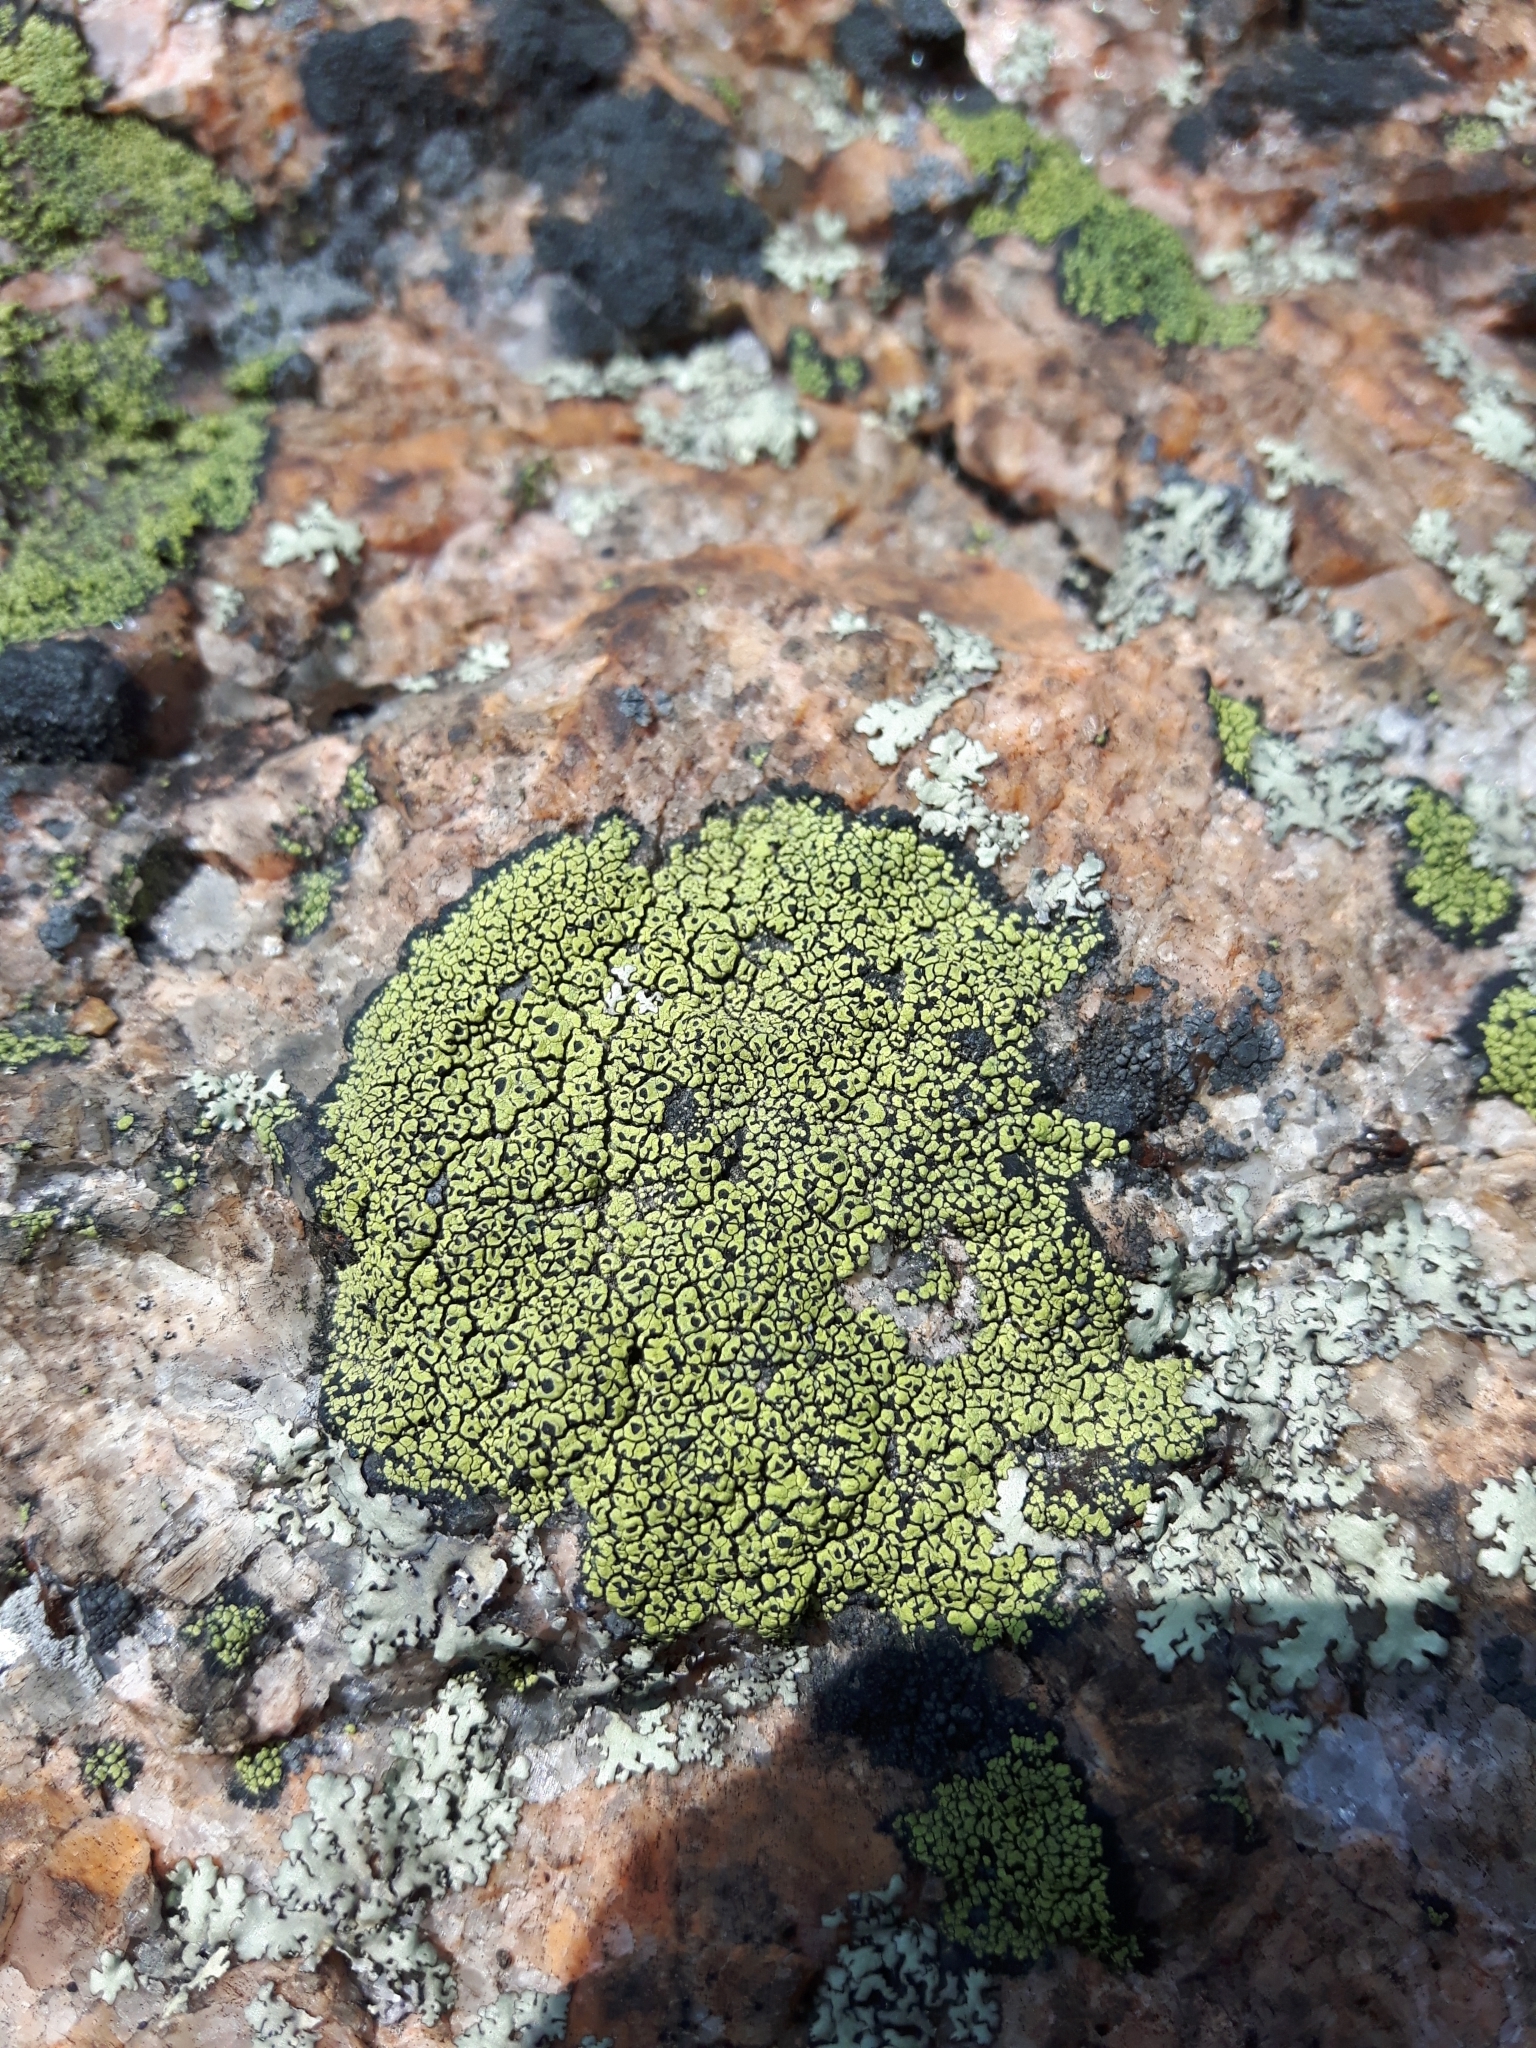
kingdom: Fungi
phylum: Ascomycota
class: Lecanoromycetes
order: Rhizocarpales
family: Rhizocarpaceae
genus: Rhizocarpon
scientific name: Rhizocarpon geographicum
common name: Yellow map lichen
